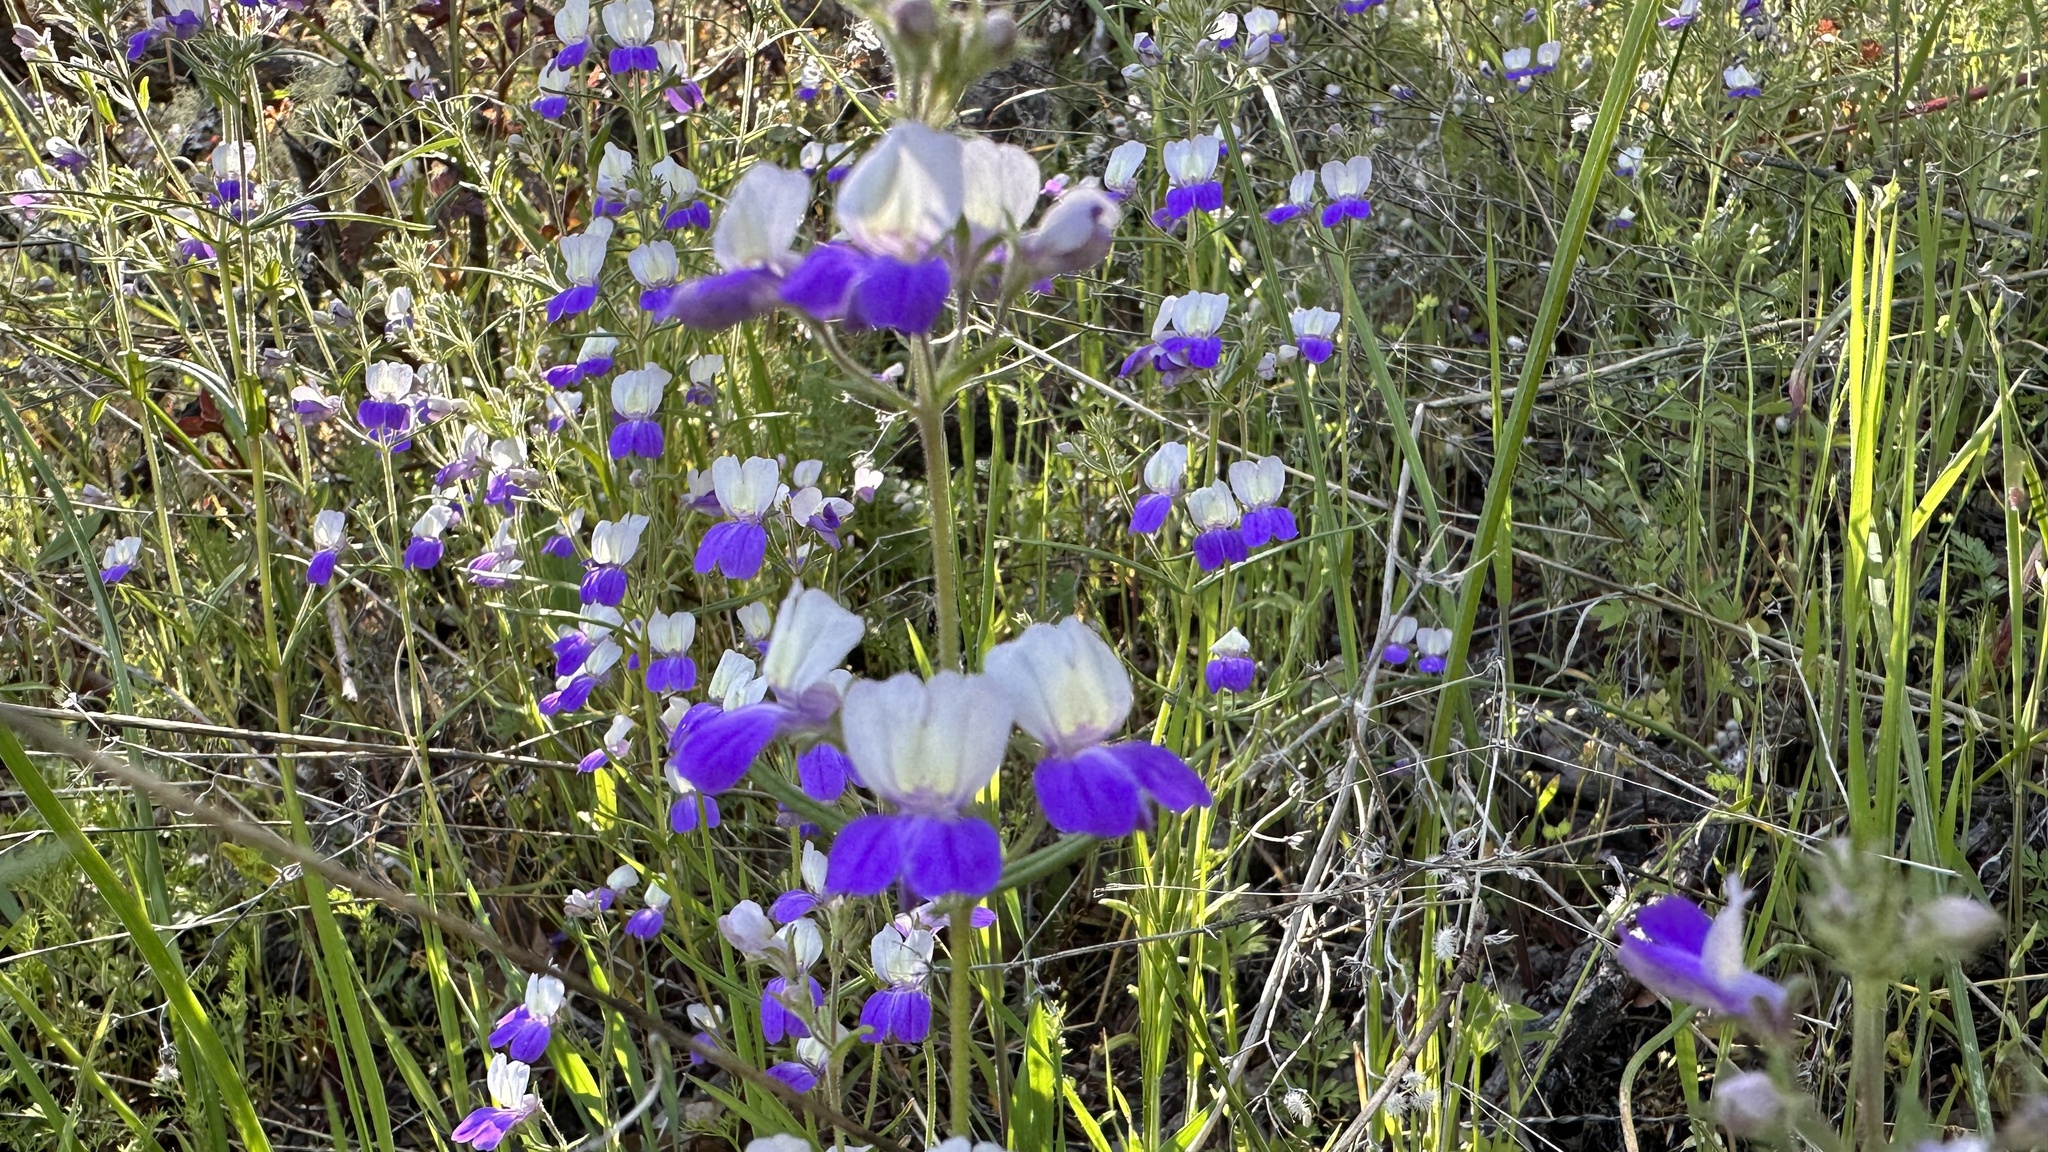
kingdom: Plantae
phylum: Tracheophyta
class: Magnoliopsida
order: Lamiales
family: Plantaginaceae
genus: Collinsia
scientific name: Collinsia linearis
